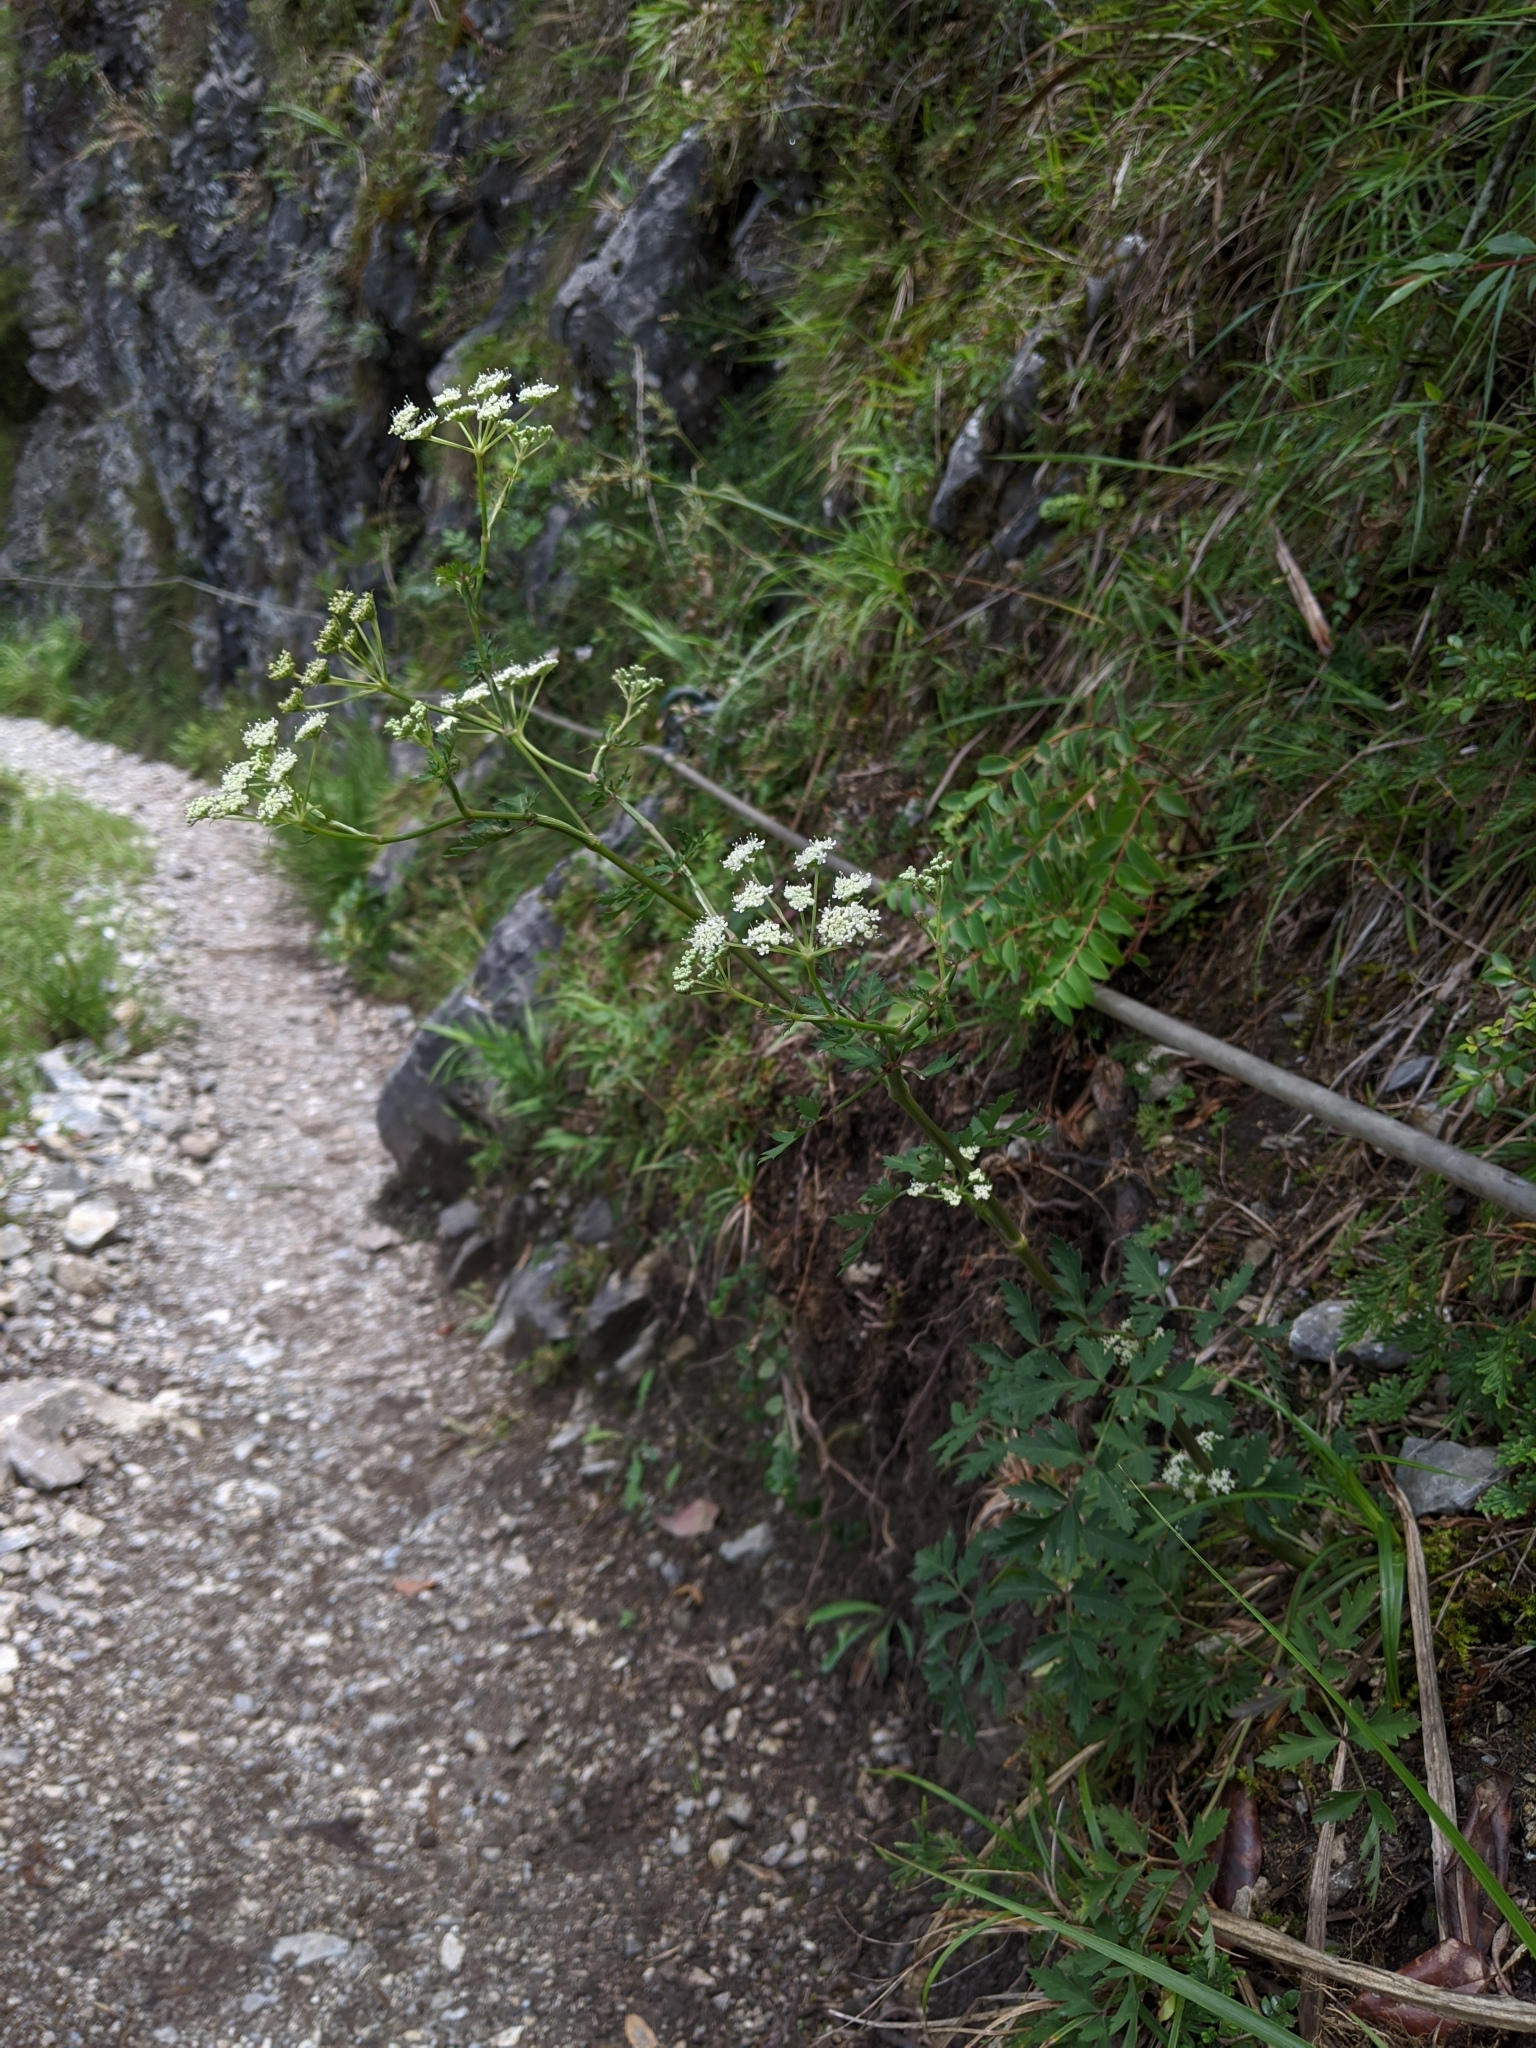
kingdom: Plantae
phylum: Tracheophyta
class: Magnoliopsida
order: Apiales
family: Apiaceae
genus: Kitagawia
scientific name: Kitagawia formosana
